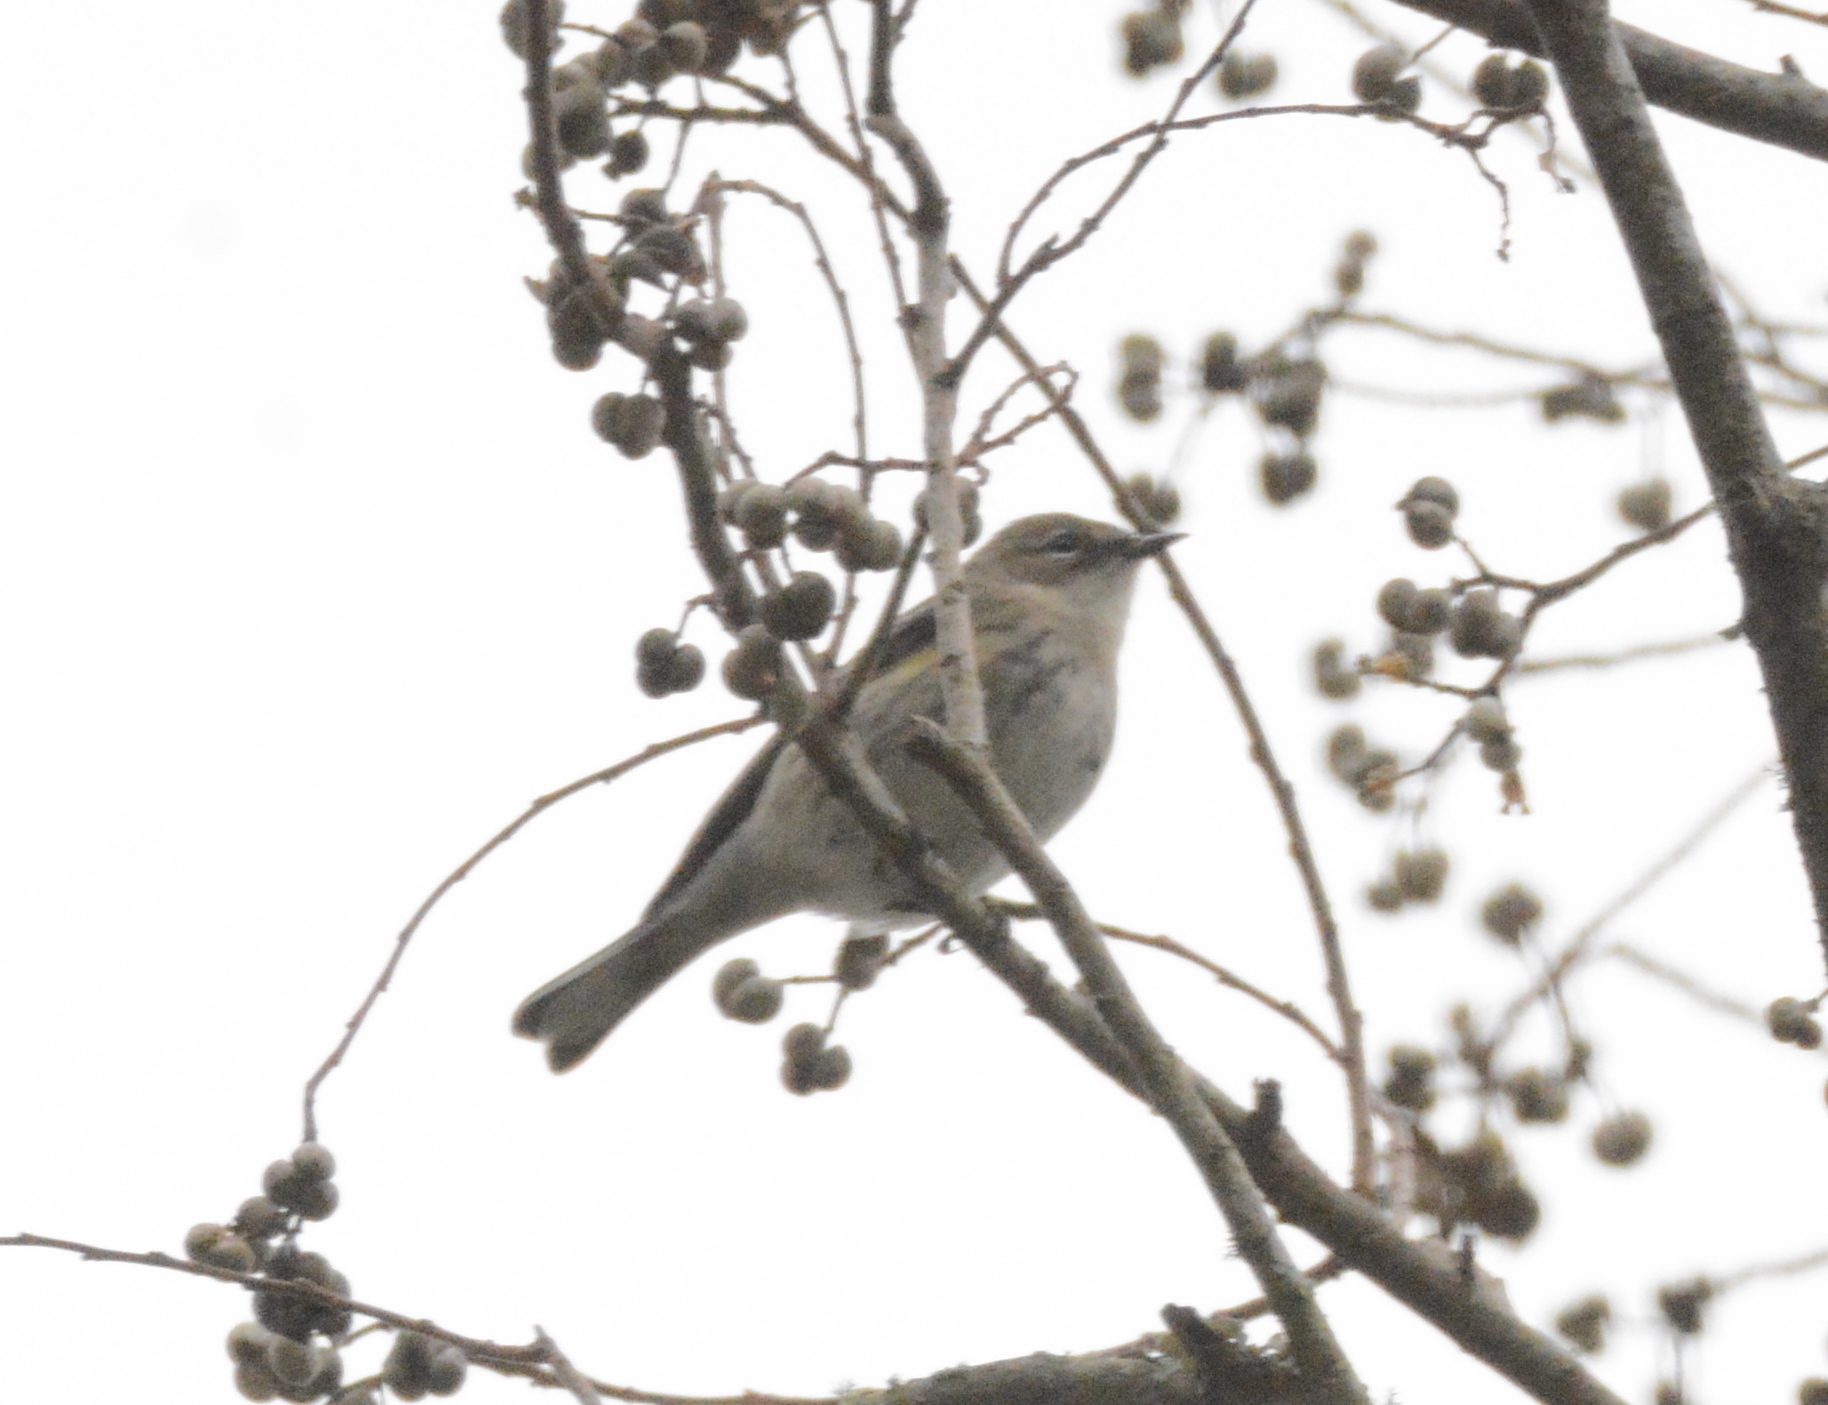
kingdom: Animalia
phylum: Chordata
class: Aves
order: Passeriformes
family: Parulidae
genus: Setophaga
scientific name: Setophaga coronata
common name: Myrtle warbler
